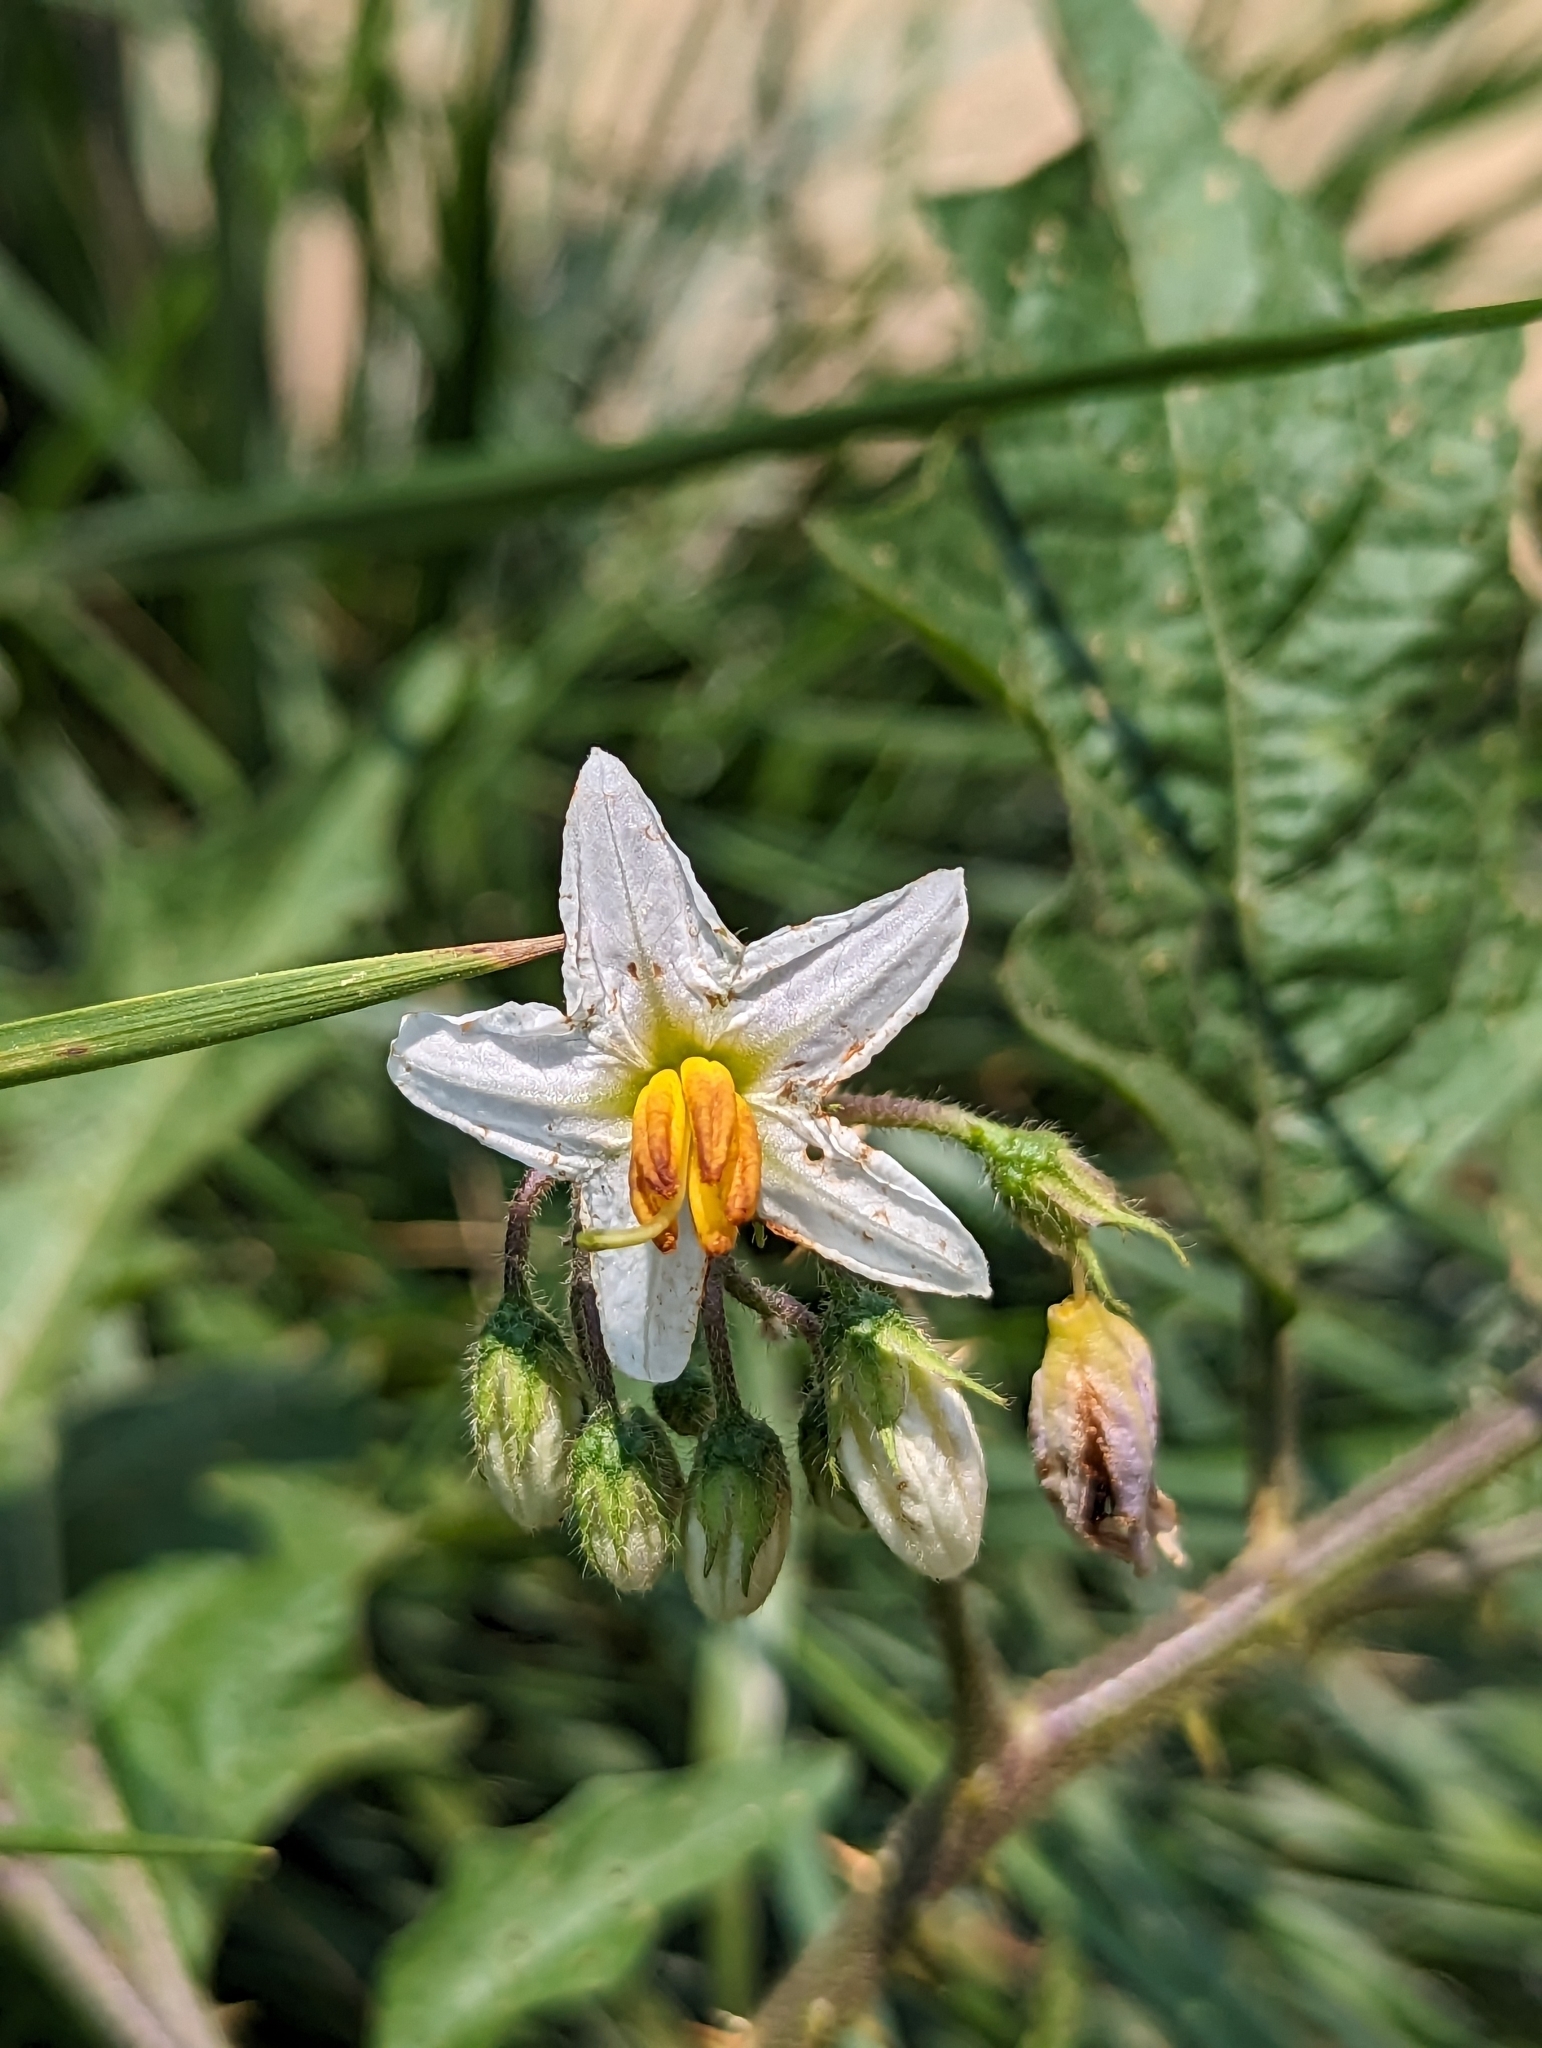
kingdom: Plantae
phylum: Tracheophyta
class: Magnoliopsida
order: Solanales
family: Solanaceae
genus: Solanum
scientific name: Solanum carolinense
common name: Horse-nettle
